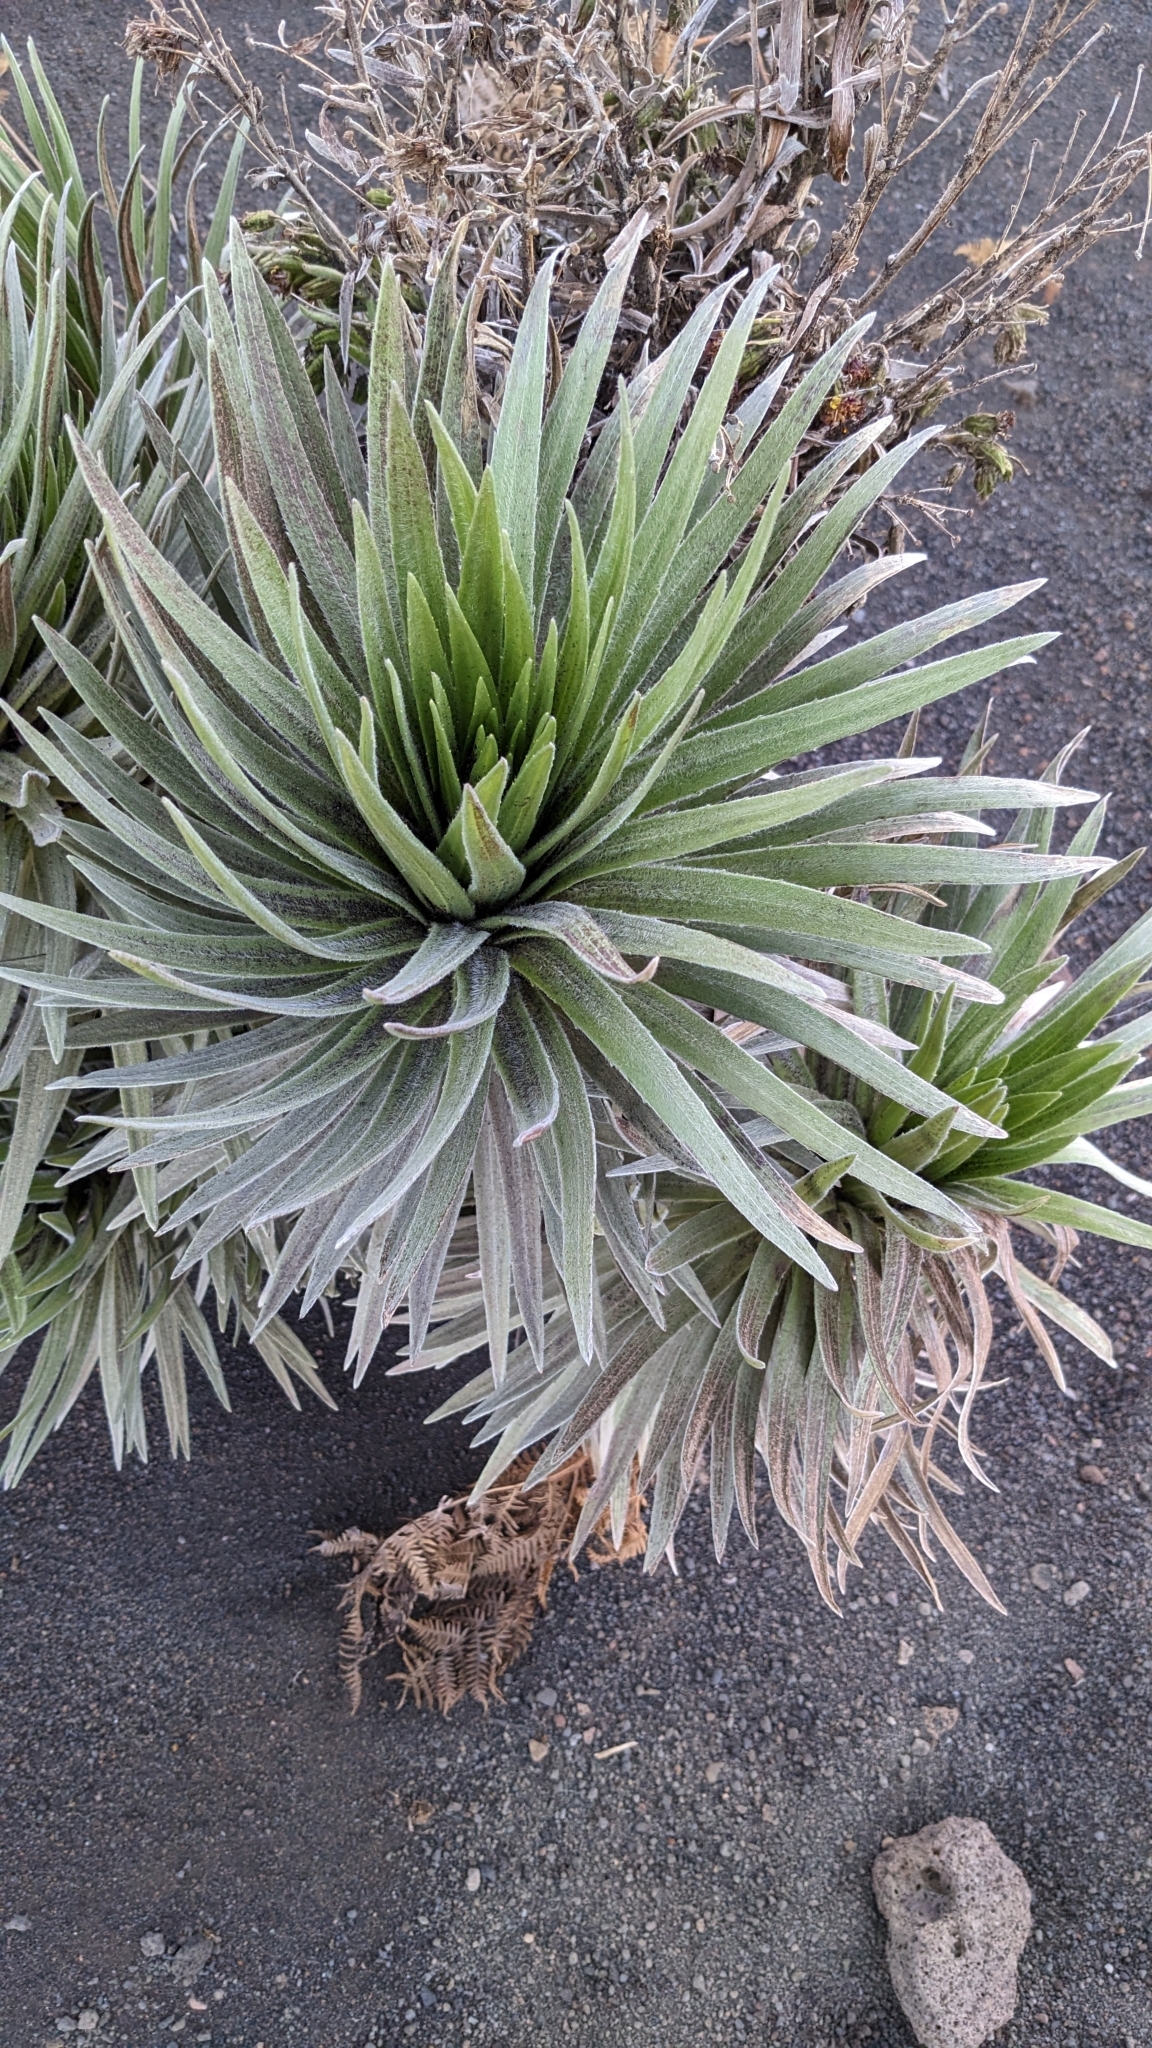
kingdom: Plantae
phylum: Tracheophyta
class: Magnoliopsida
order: Asterales
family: Asteraceae
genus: Argyroxiphium
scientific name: Argyroxiphium sandwicense
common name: Silversword
